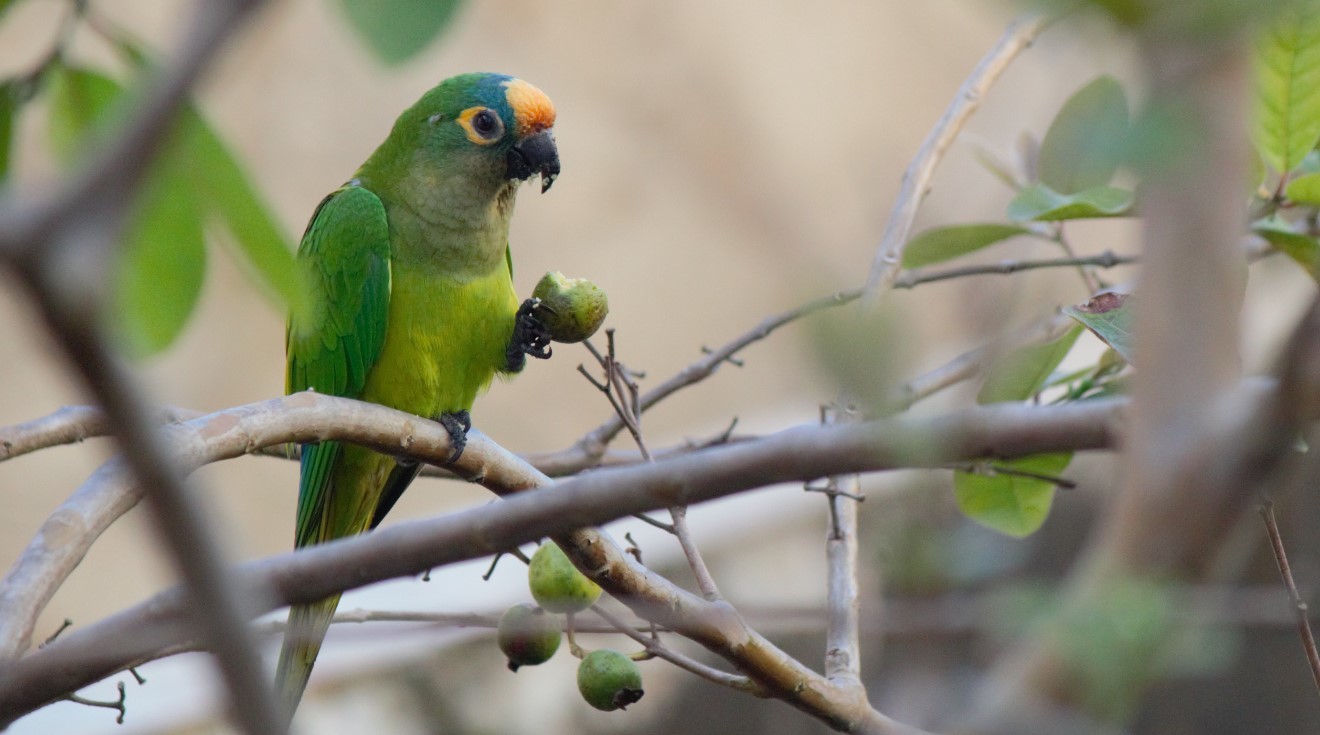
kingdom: Animalia
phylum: Chordata
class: Aves
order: Psittaciformes
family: Psittacidae
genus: Aratinga
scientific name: Aratinga aurea
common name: Peach-fronted parakeet
